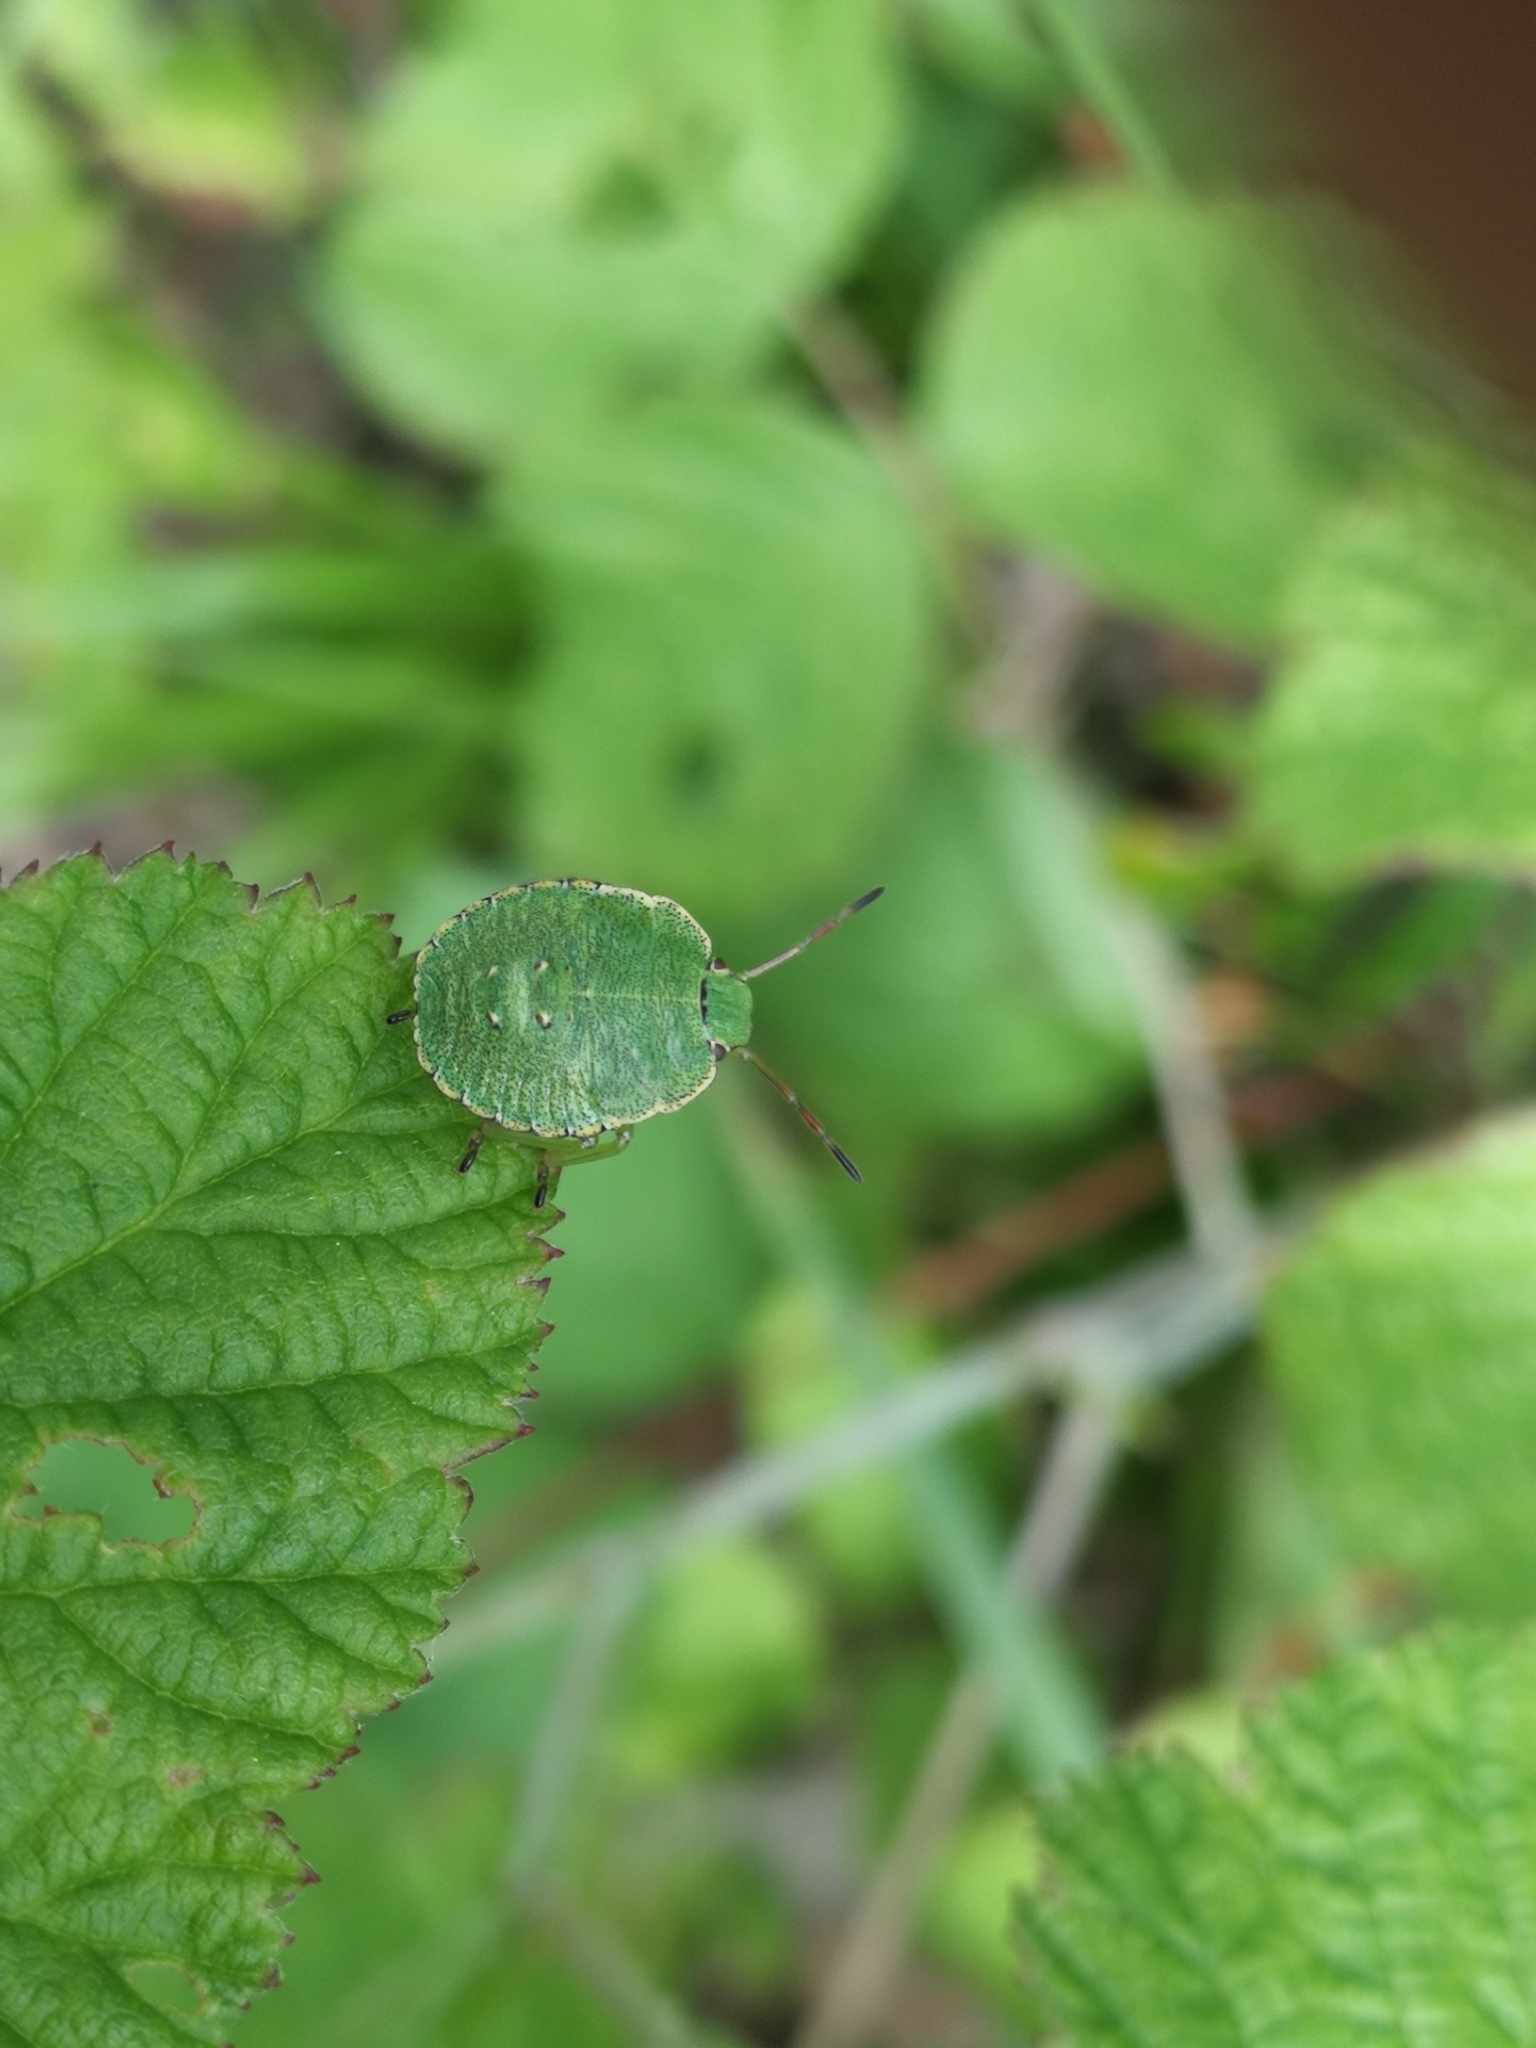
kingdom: Animalia
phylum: Arthropoda
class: Insecta
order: Hemiptera
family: Pentatomidae
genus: Palomena
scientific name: Palomena prasina
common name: Green shieldbug
